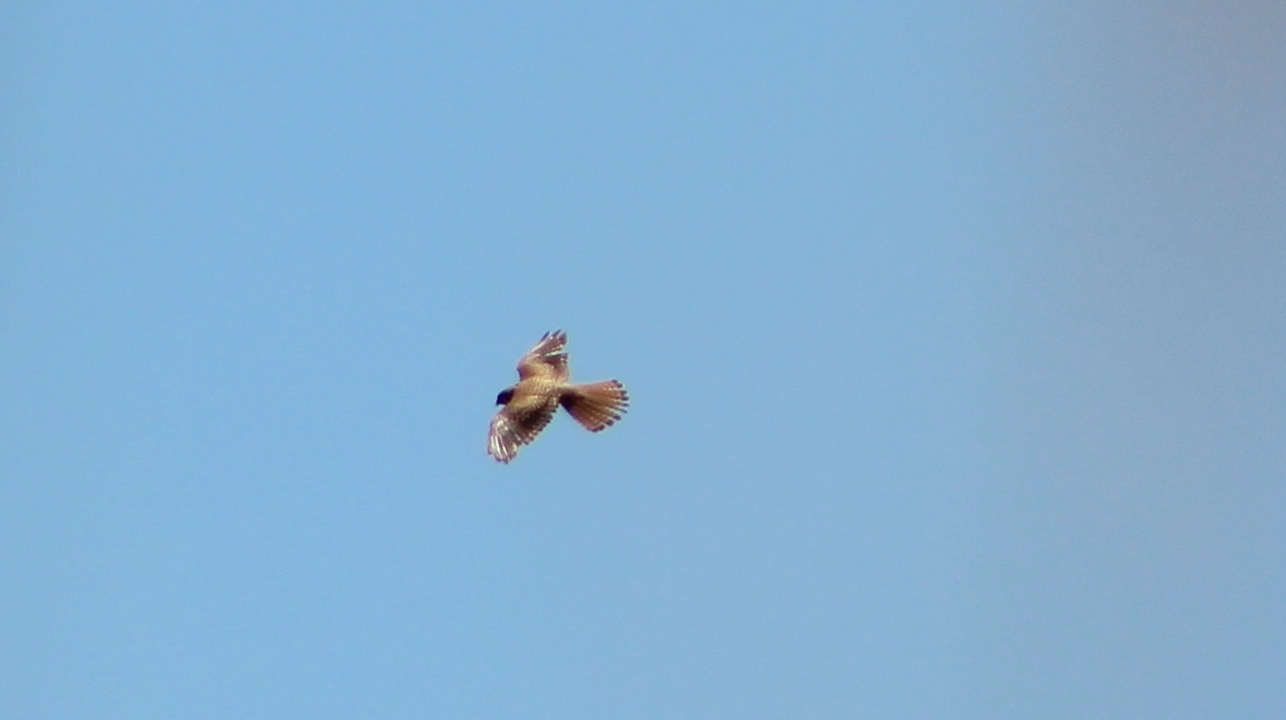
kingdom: Animalia
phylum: Chordata
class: Aves
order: Falconiformes
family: Falconidae
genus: Falco
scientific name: Falco sparverius
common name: American kestrel
